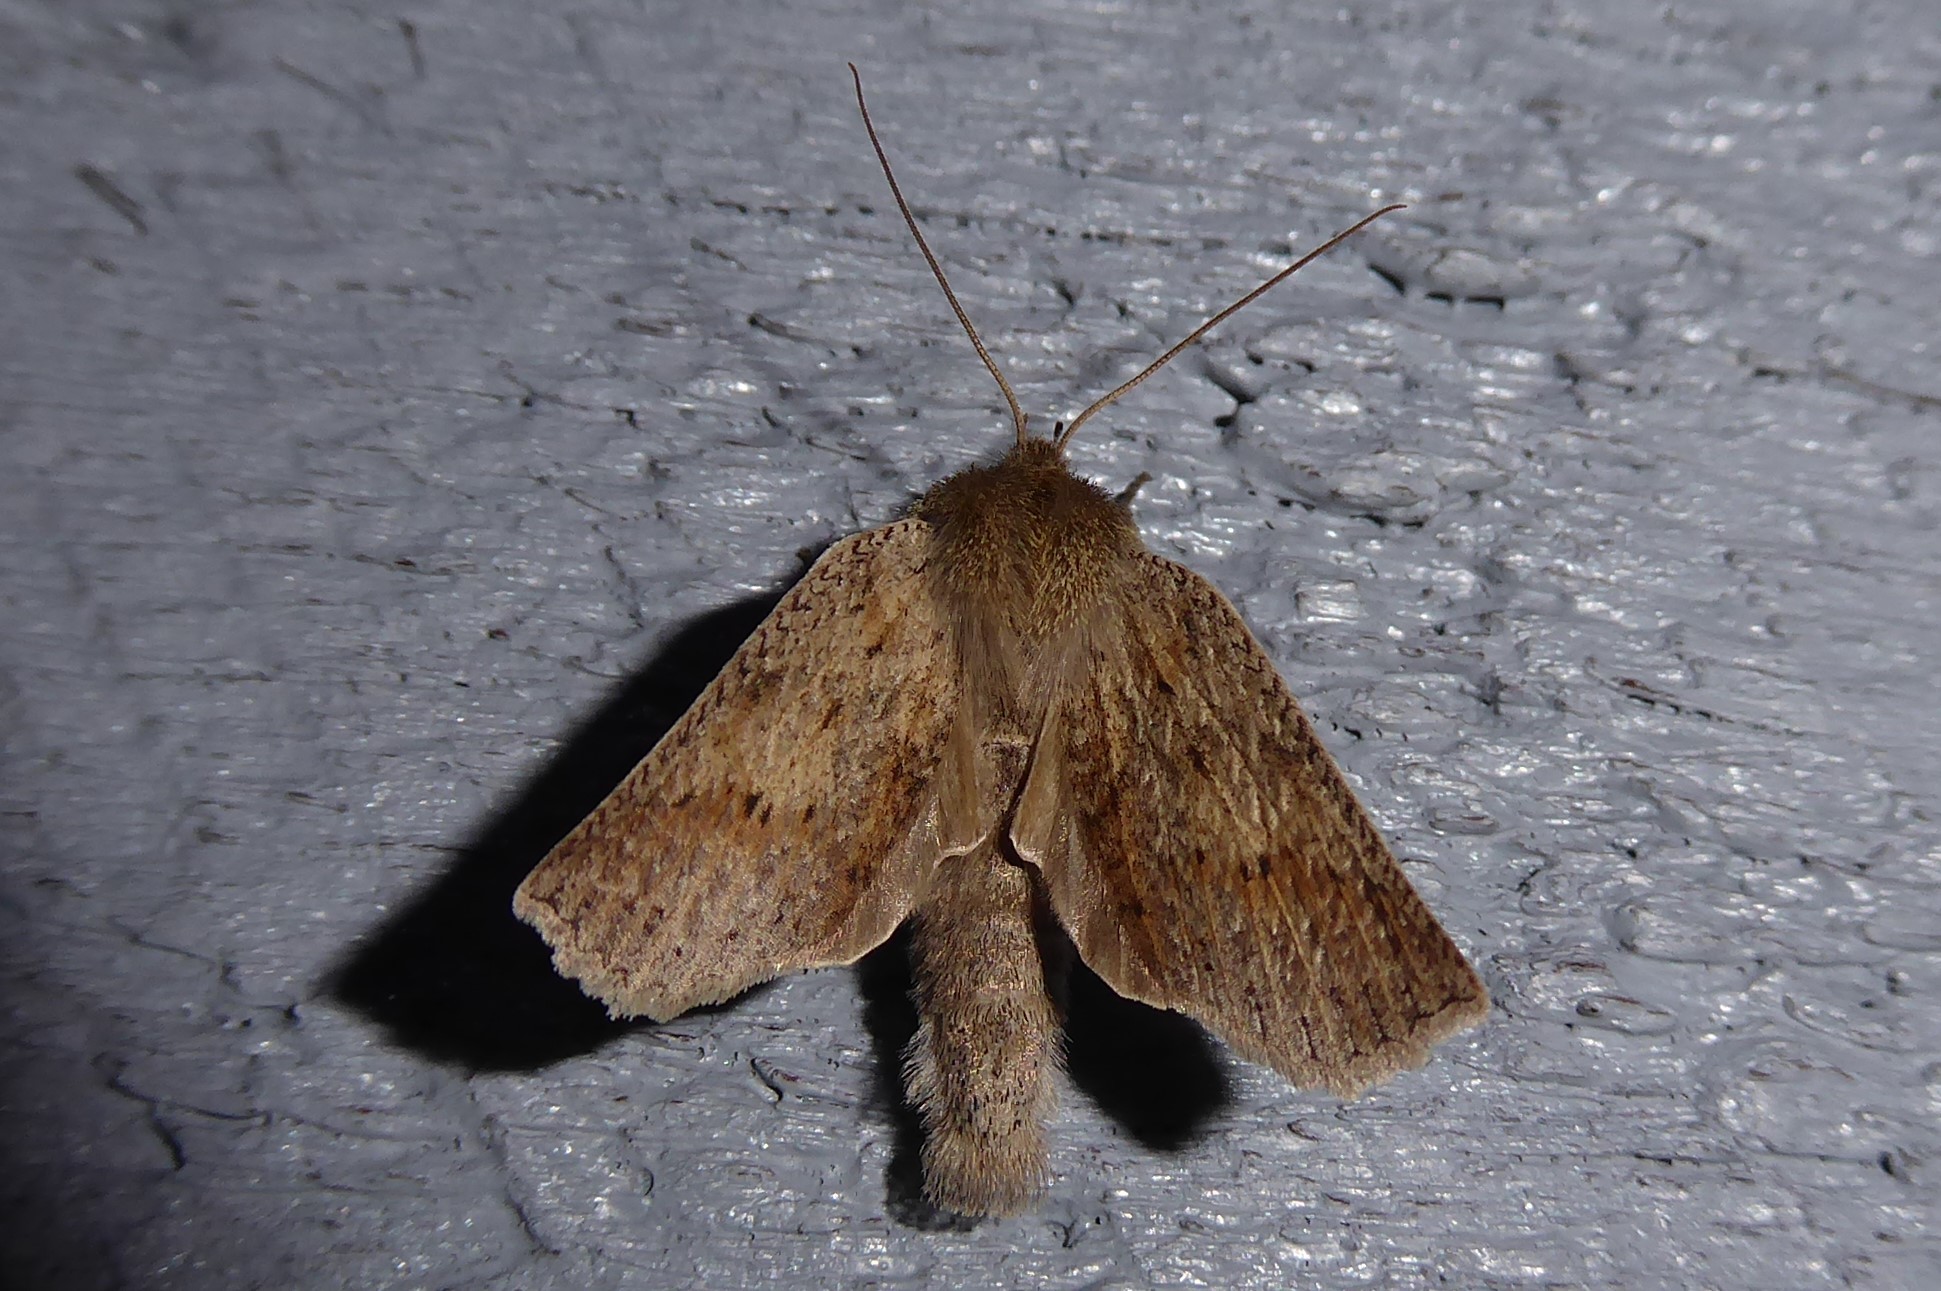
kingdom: Animalia
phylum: Arthropoda
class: Insecta
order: Lepidoptera
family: Geometridae
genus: Declana
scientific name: Declana leptomera
